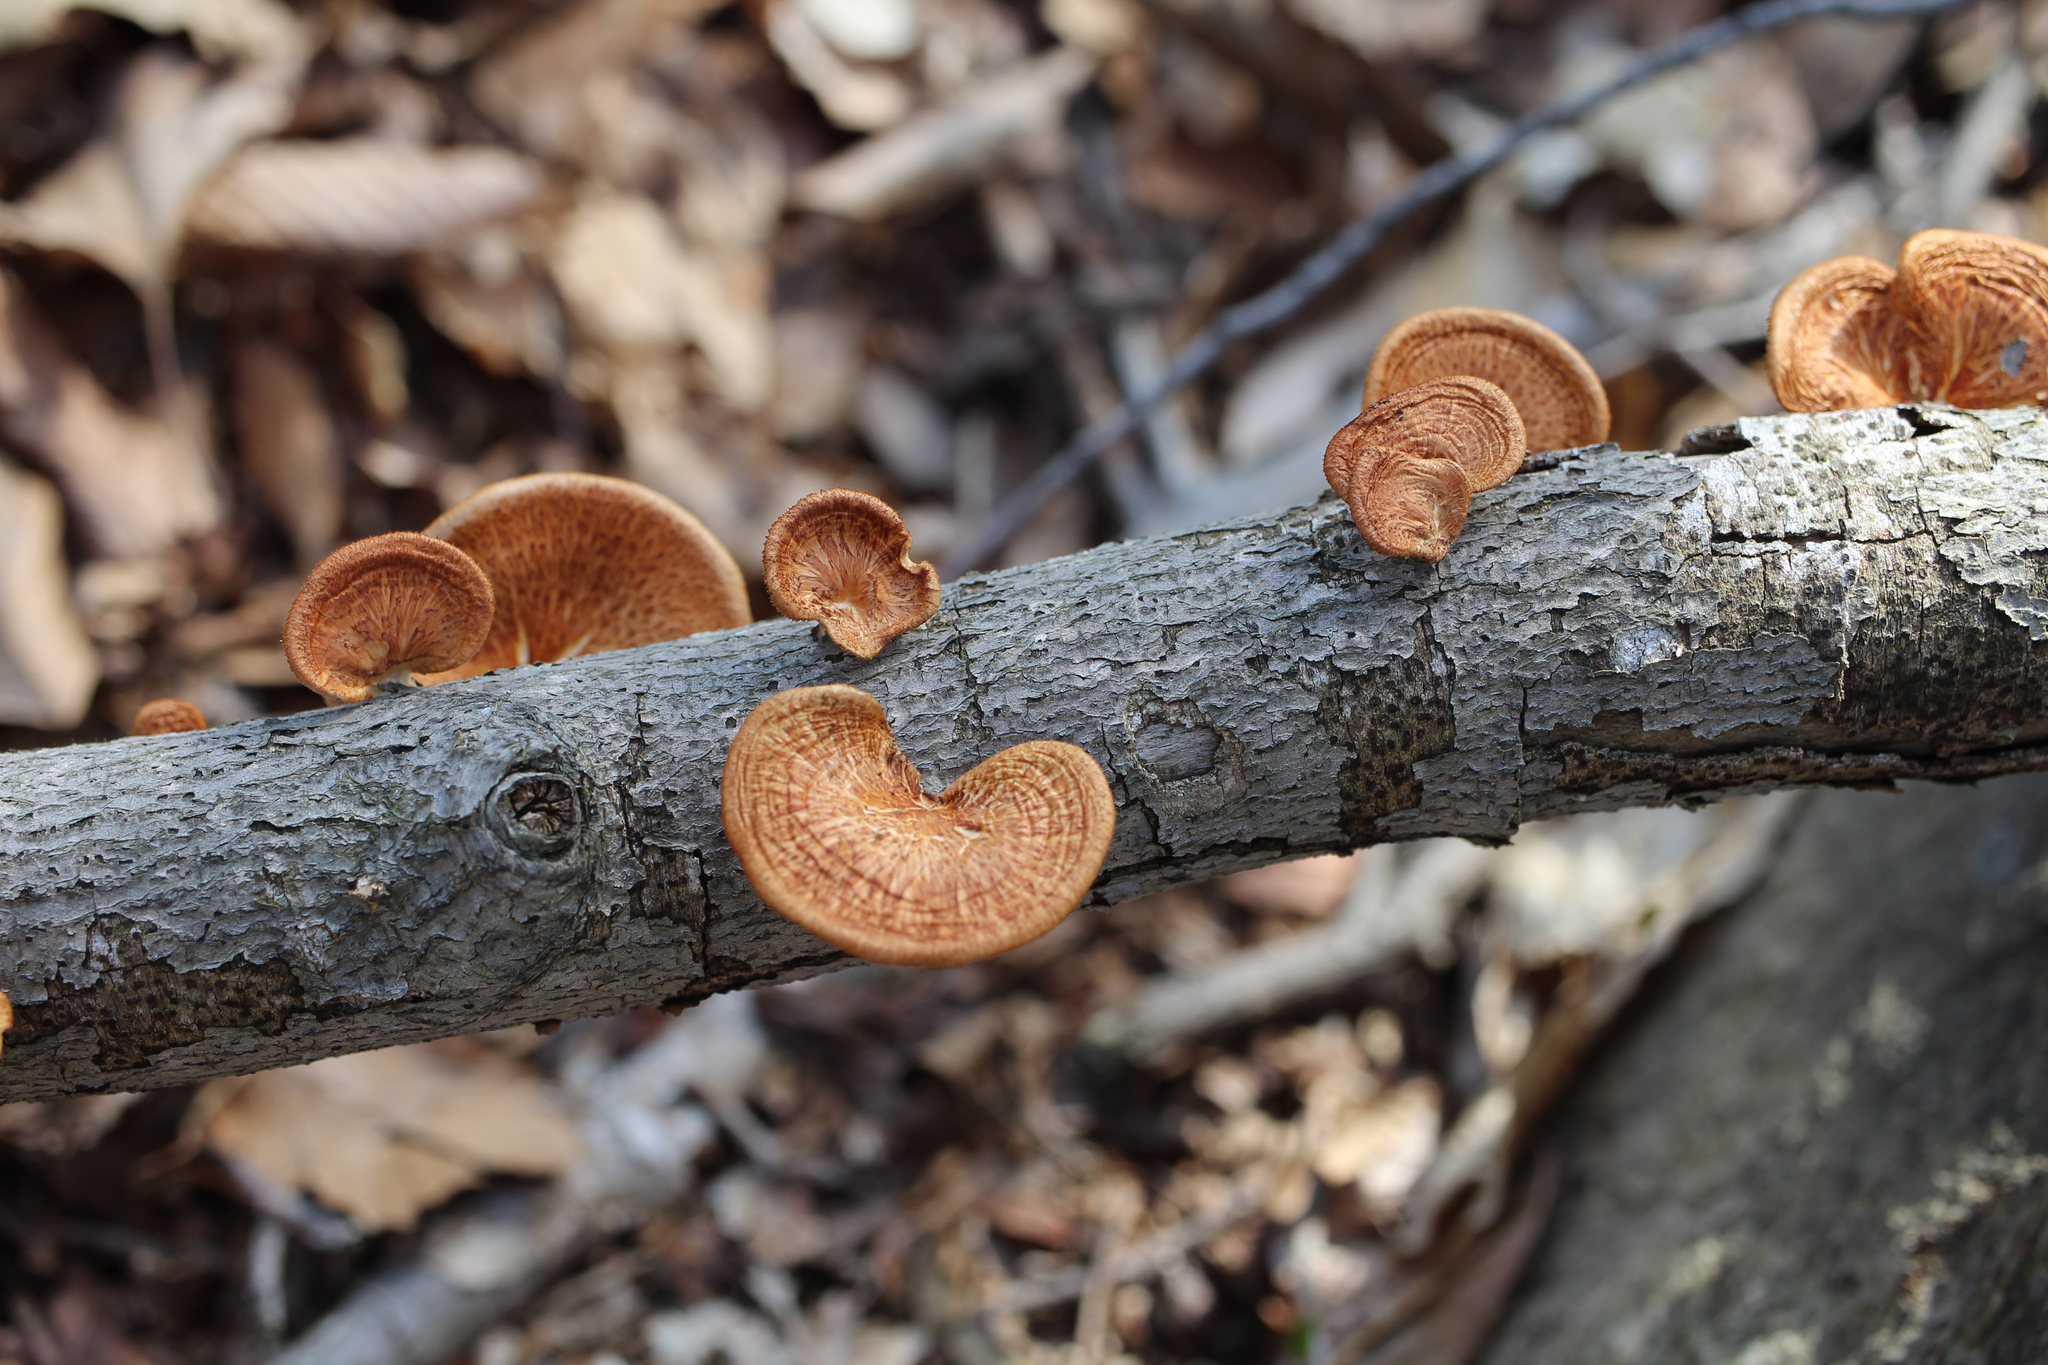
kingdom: Fungi
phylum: Basidiomycota
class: Agaricomycetes
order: Polyporales
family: Polyporaceae
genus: Neofavolus
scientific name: Neofavolus alveolaris
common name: Hexagonal-pored polypore
